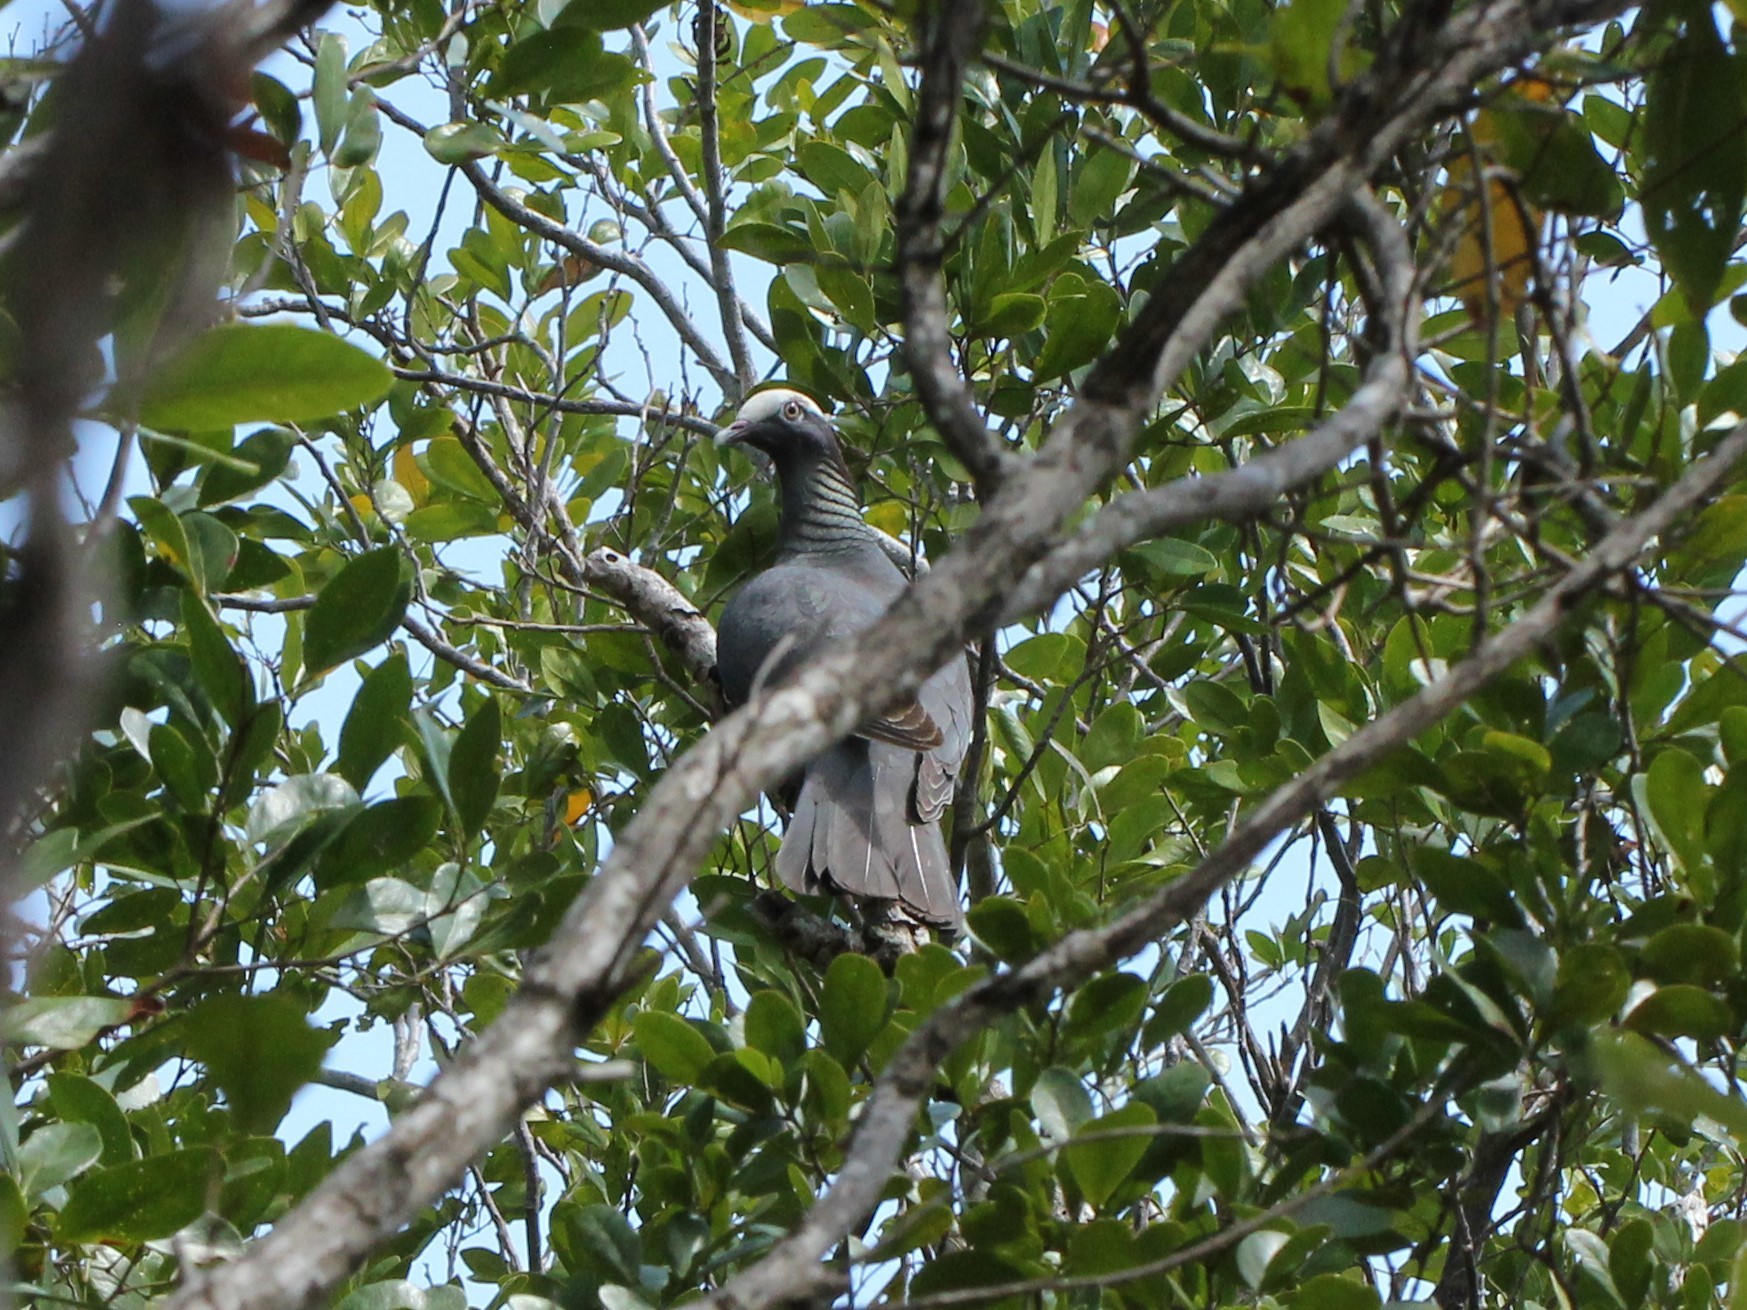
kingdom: Animalia
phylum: Chordata
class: Aves
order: Columbiformes
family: Columbidae
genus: Patagioenas
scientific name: Patagioenas leucocephala
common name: White-crowned pigeon
